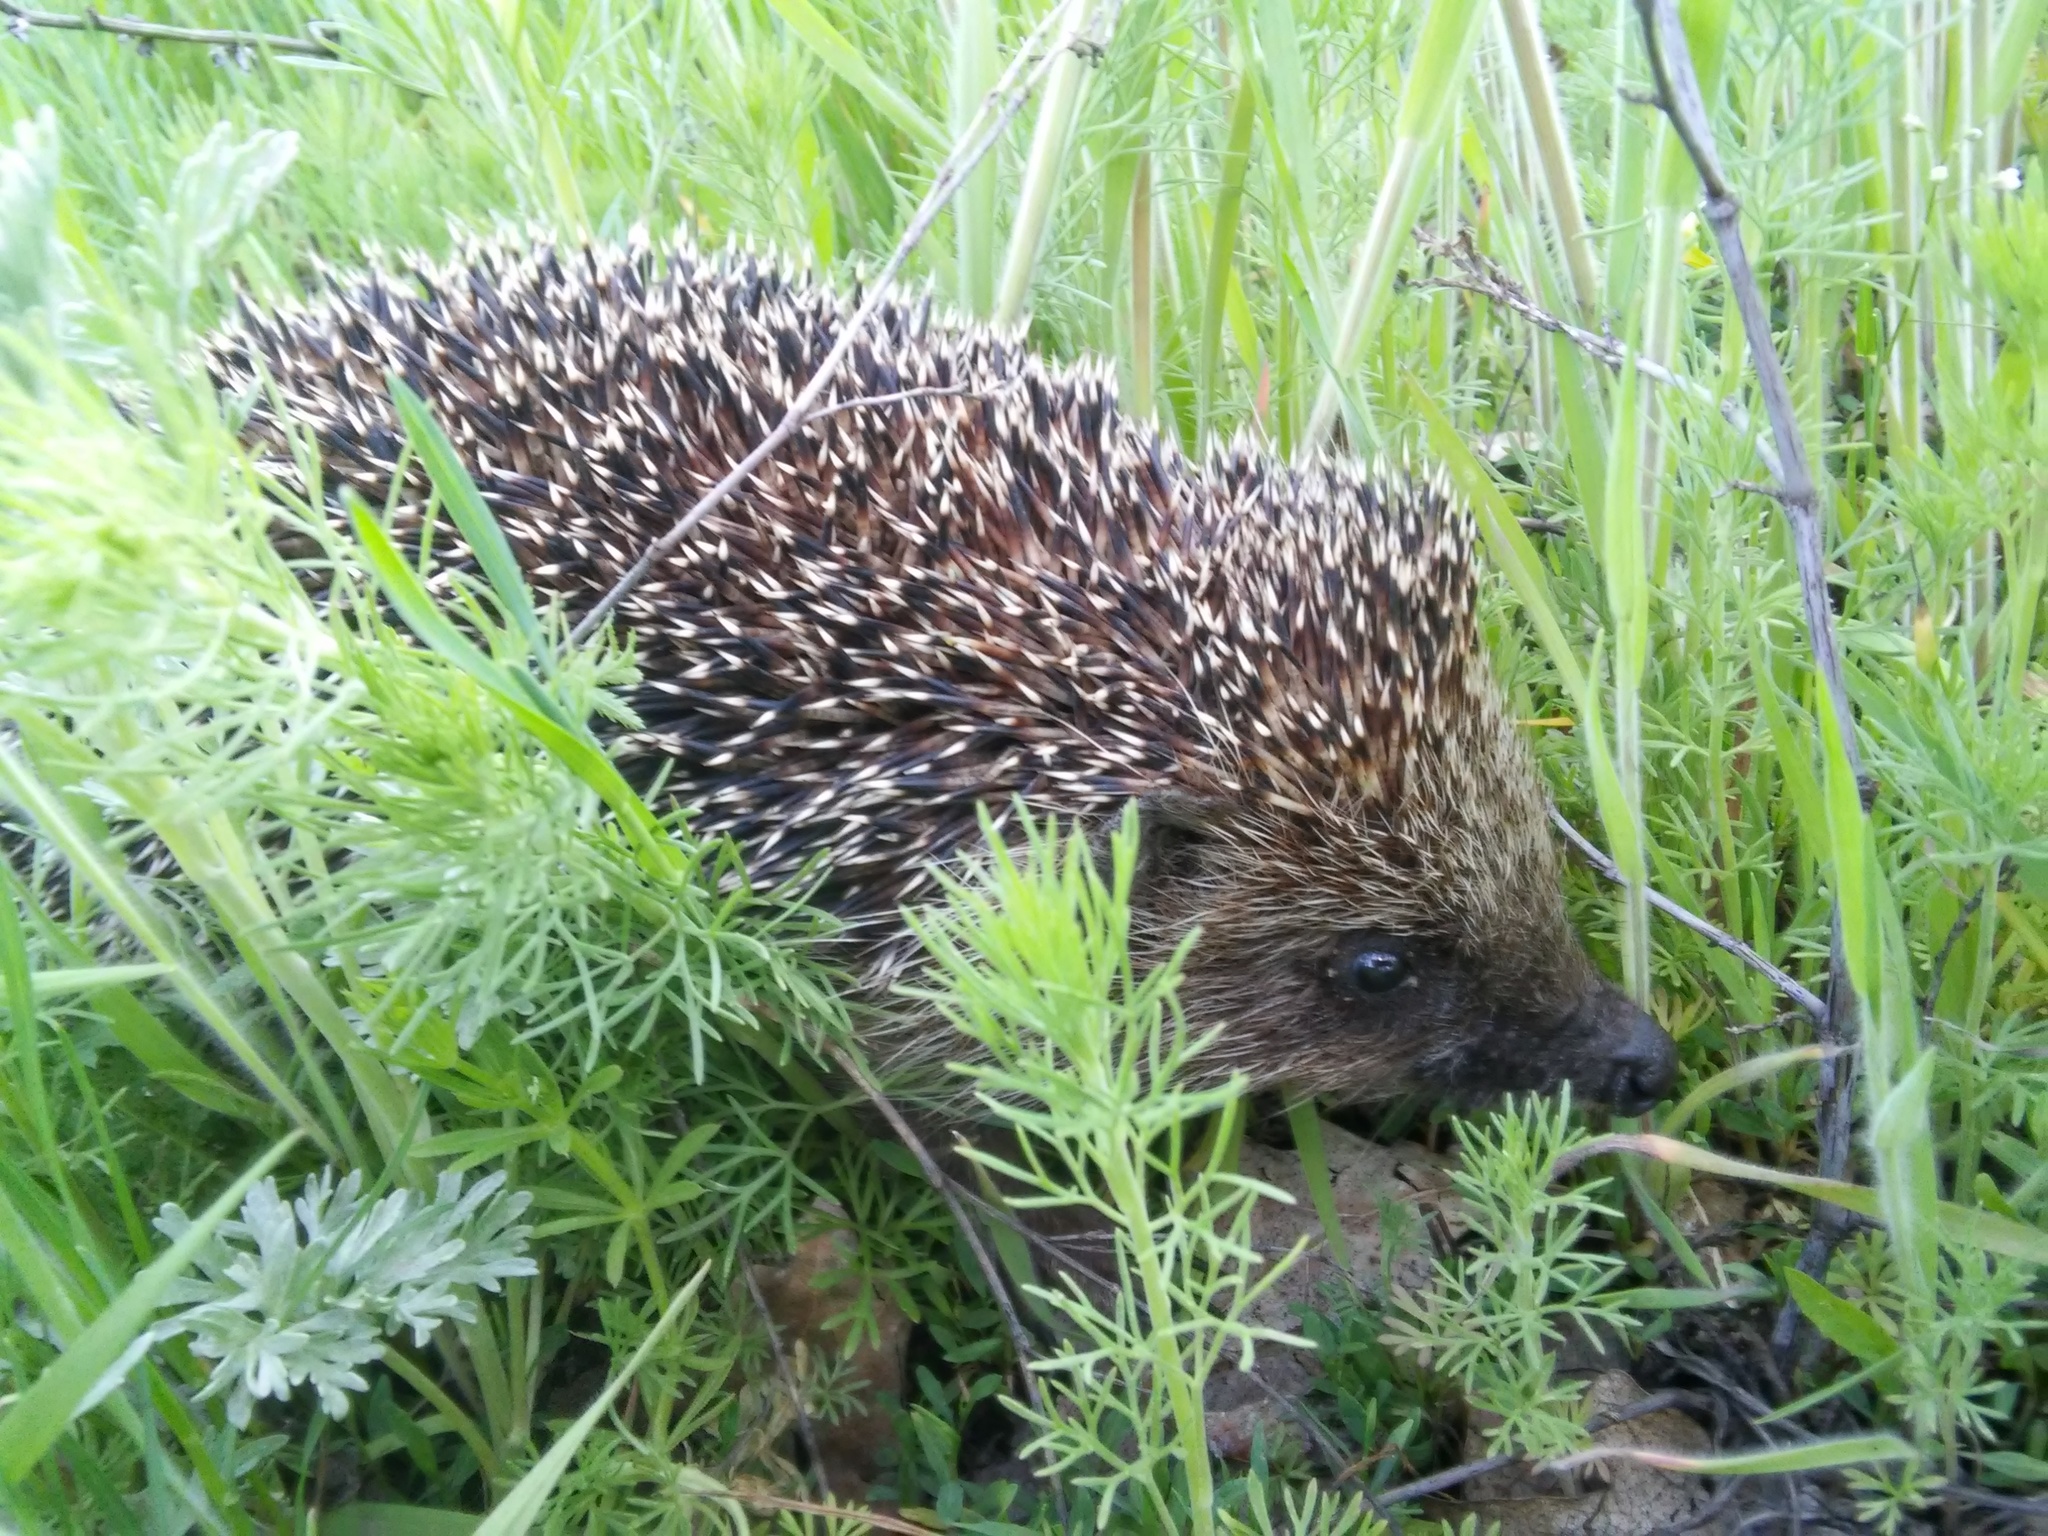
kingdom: Animalia
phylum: Chordata
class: Mammalia
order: Erinaceomorpha
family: Erinaceidae
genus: Erinaceus
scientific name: Erinaceus roumanicus
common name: Northern white-breasted hedgehog
